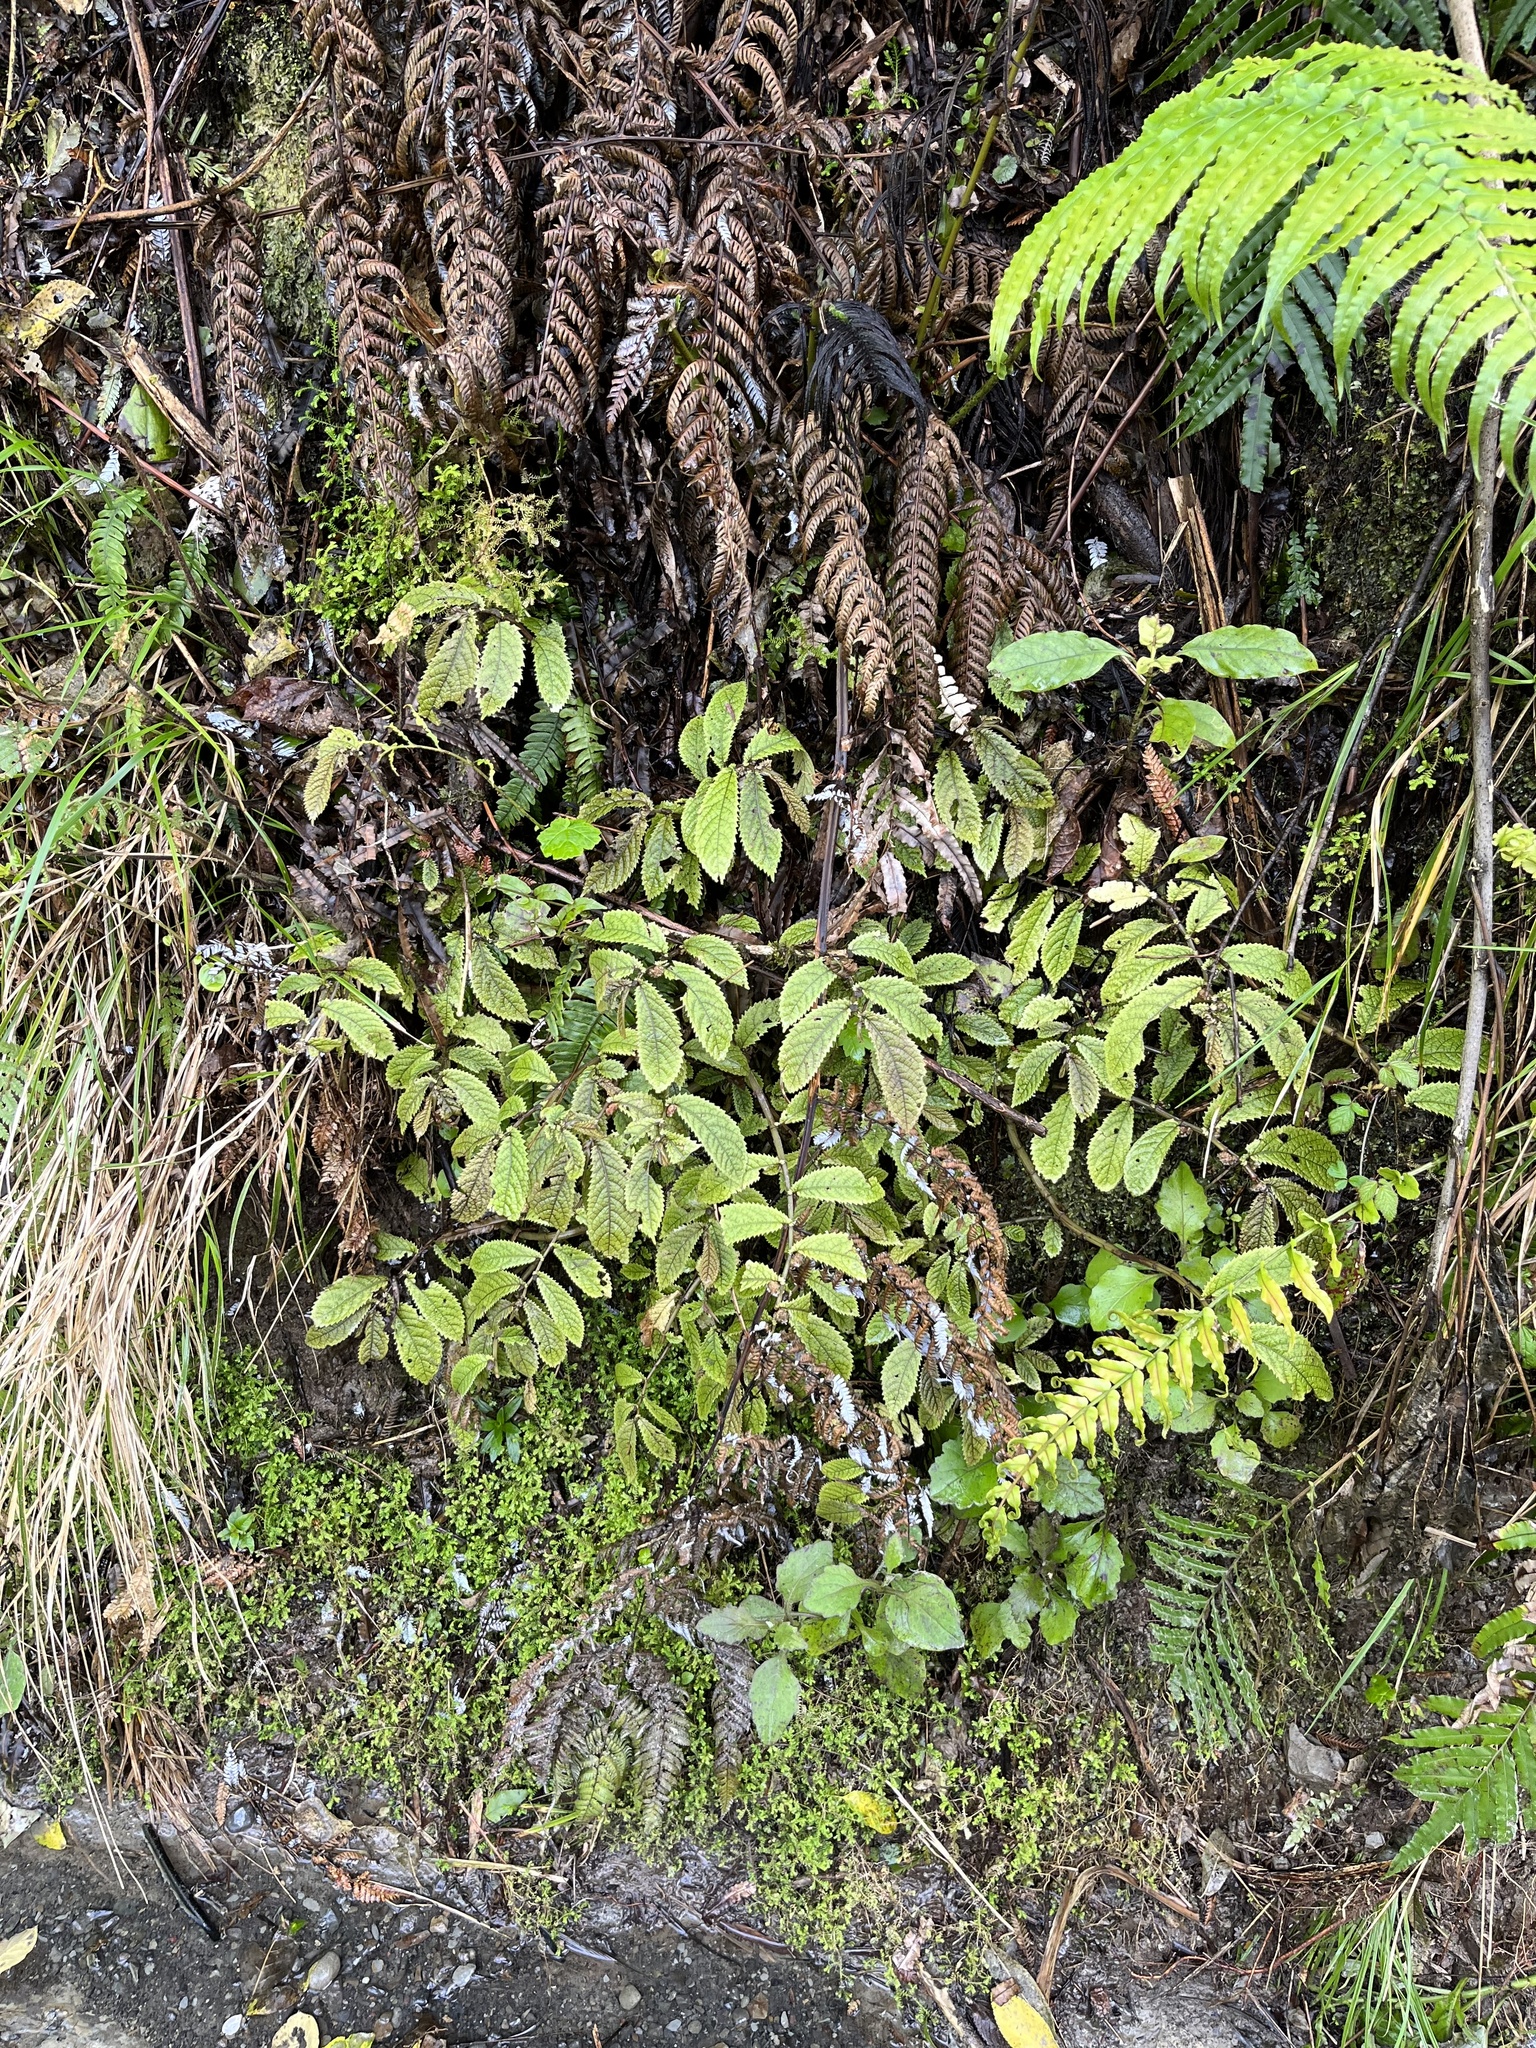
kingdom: Plantae
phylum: Tracheophyta
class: Magnoliopsida
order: Rosales
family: Urticaceae
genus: Elatostema
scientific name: Elatostema rugosum
